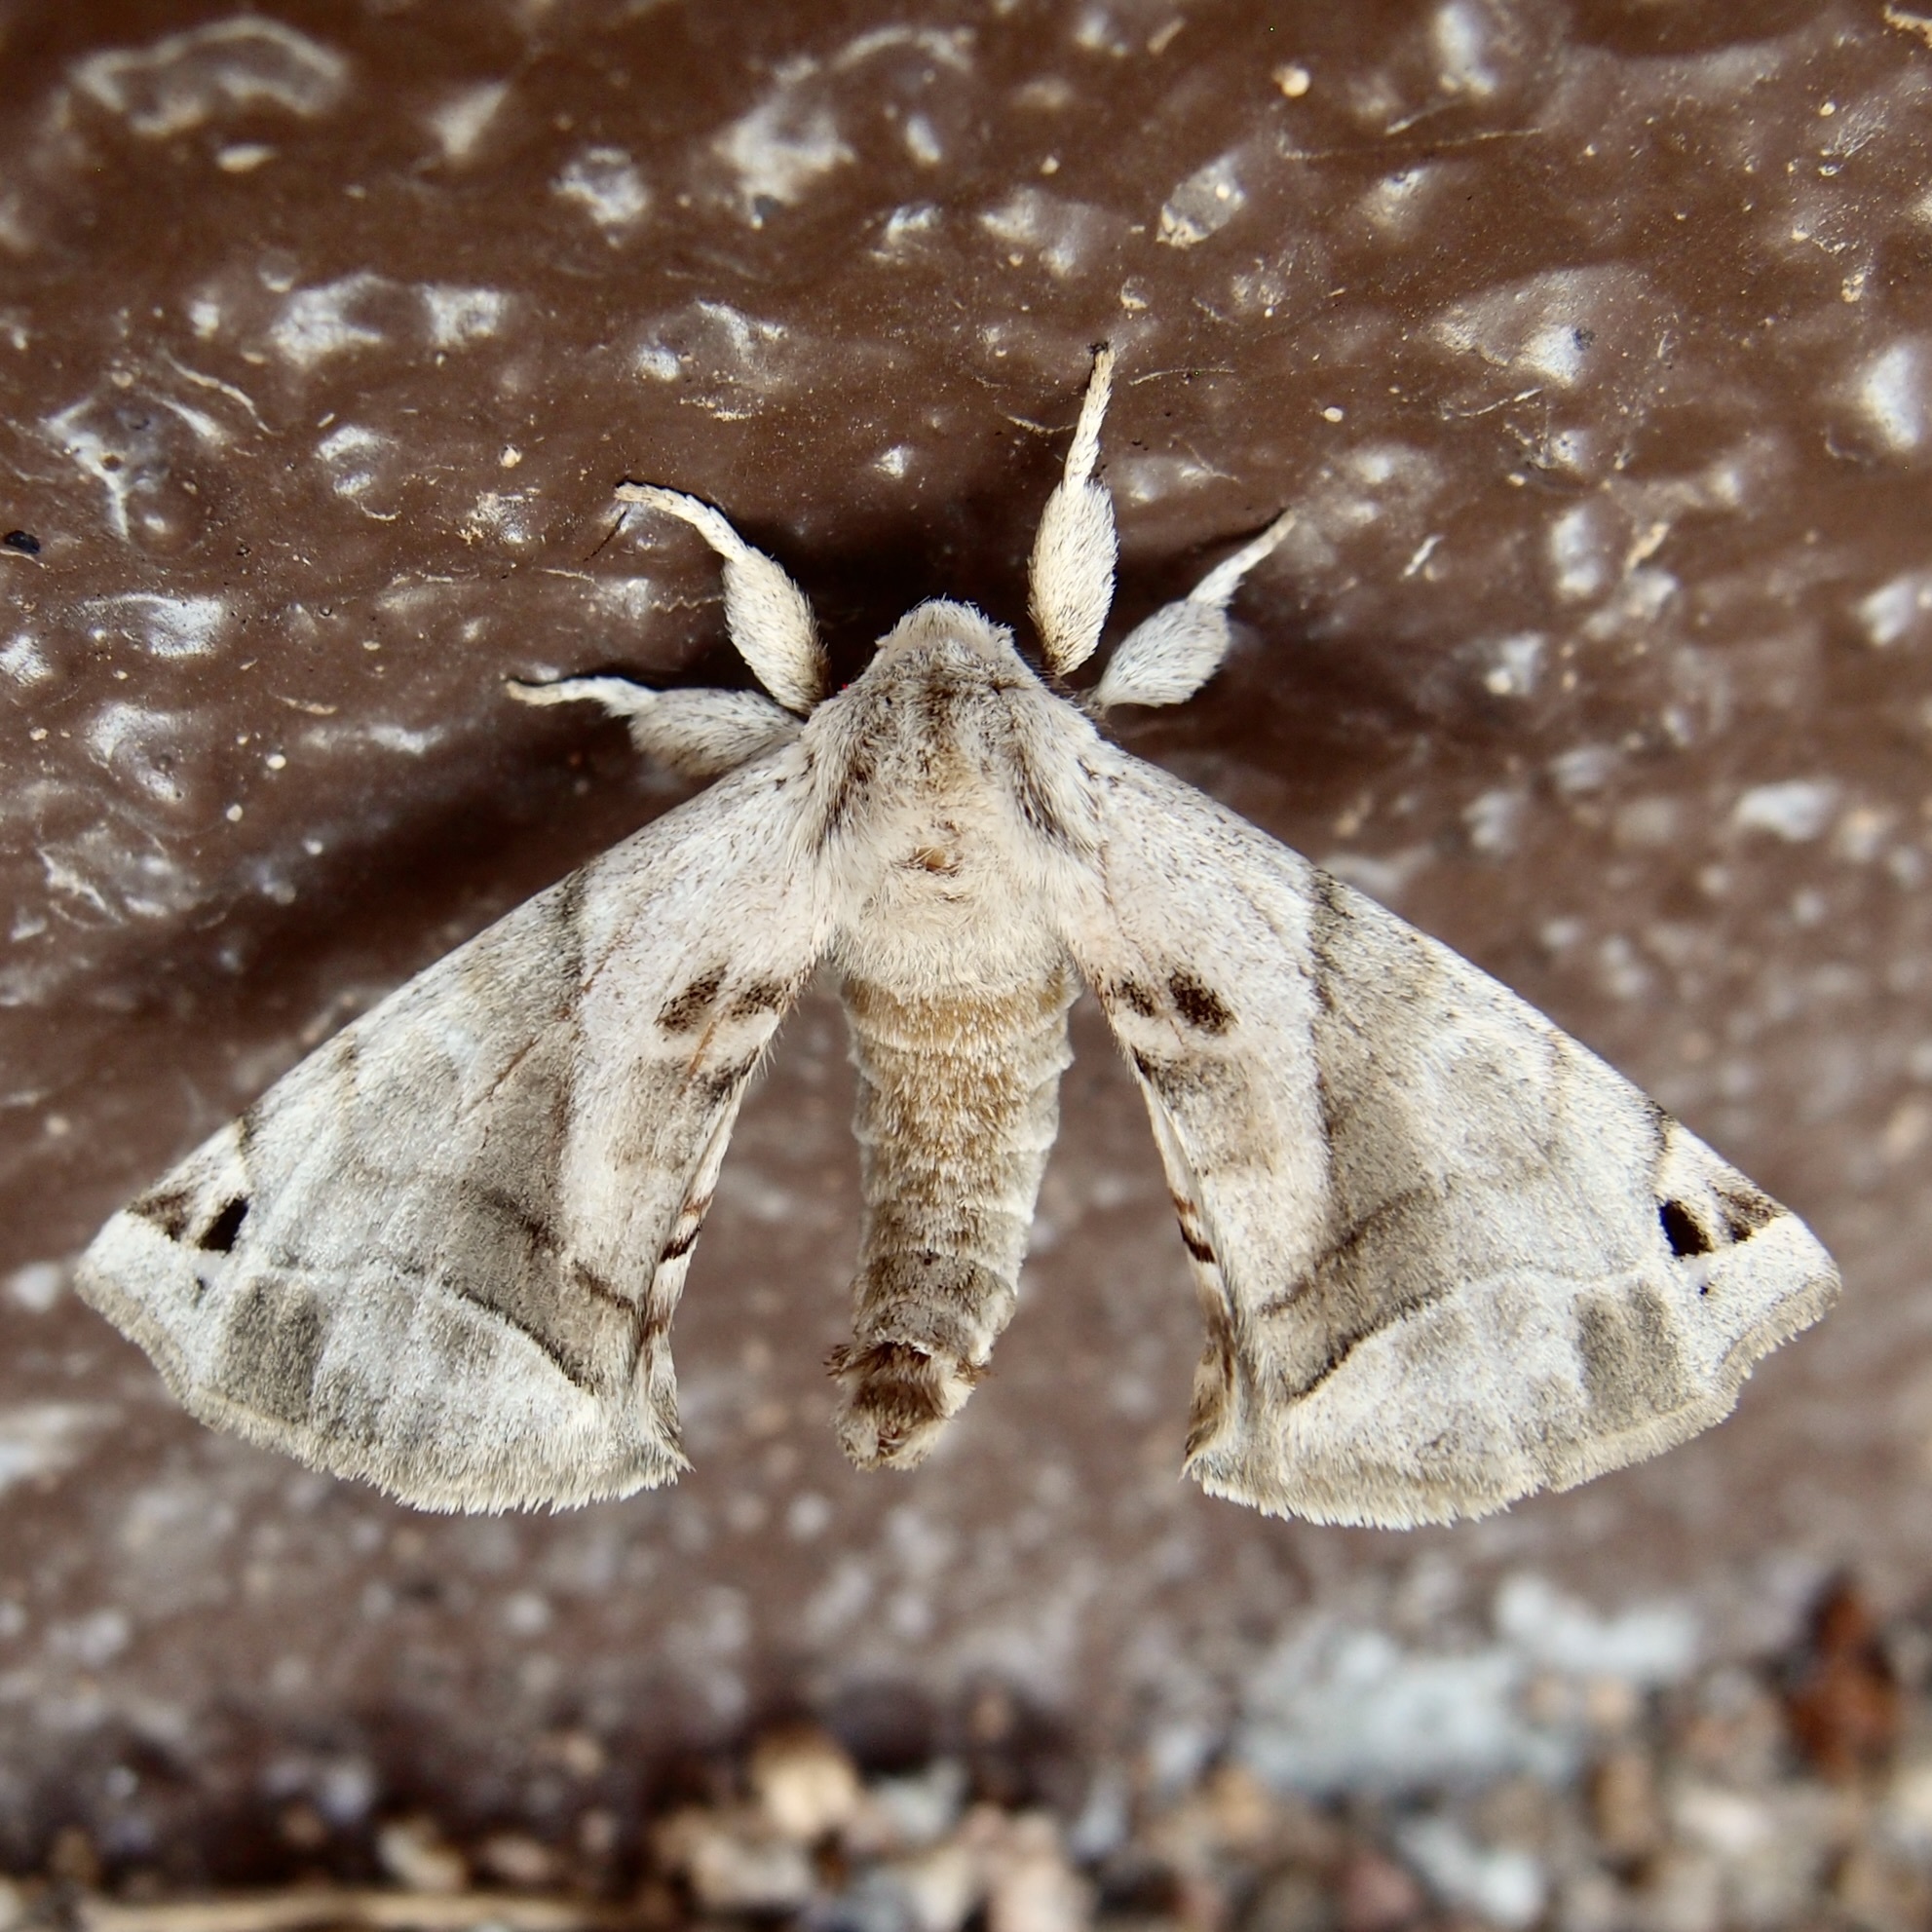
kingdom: Animalia
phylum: Arthropoda
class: Insecta
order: Lepidoptera
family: Apatelodidae
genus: Hygrochroa
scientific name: Hygrochroa Apatelodes pudefacta
